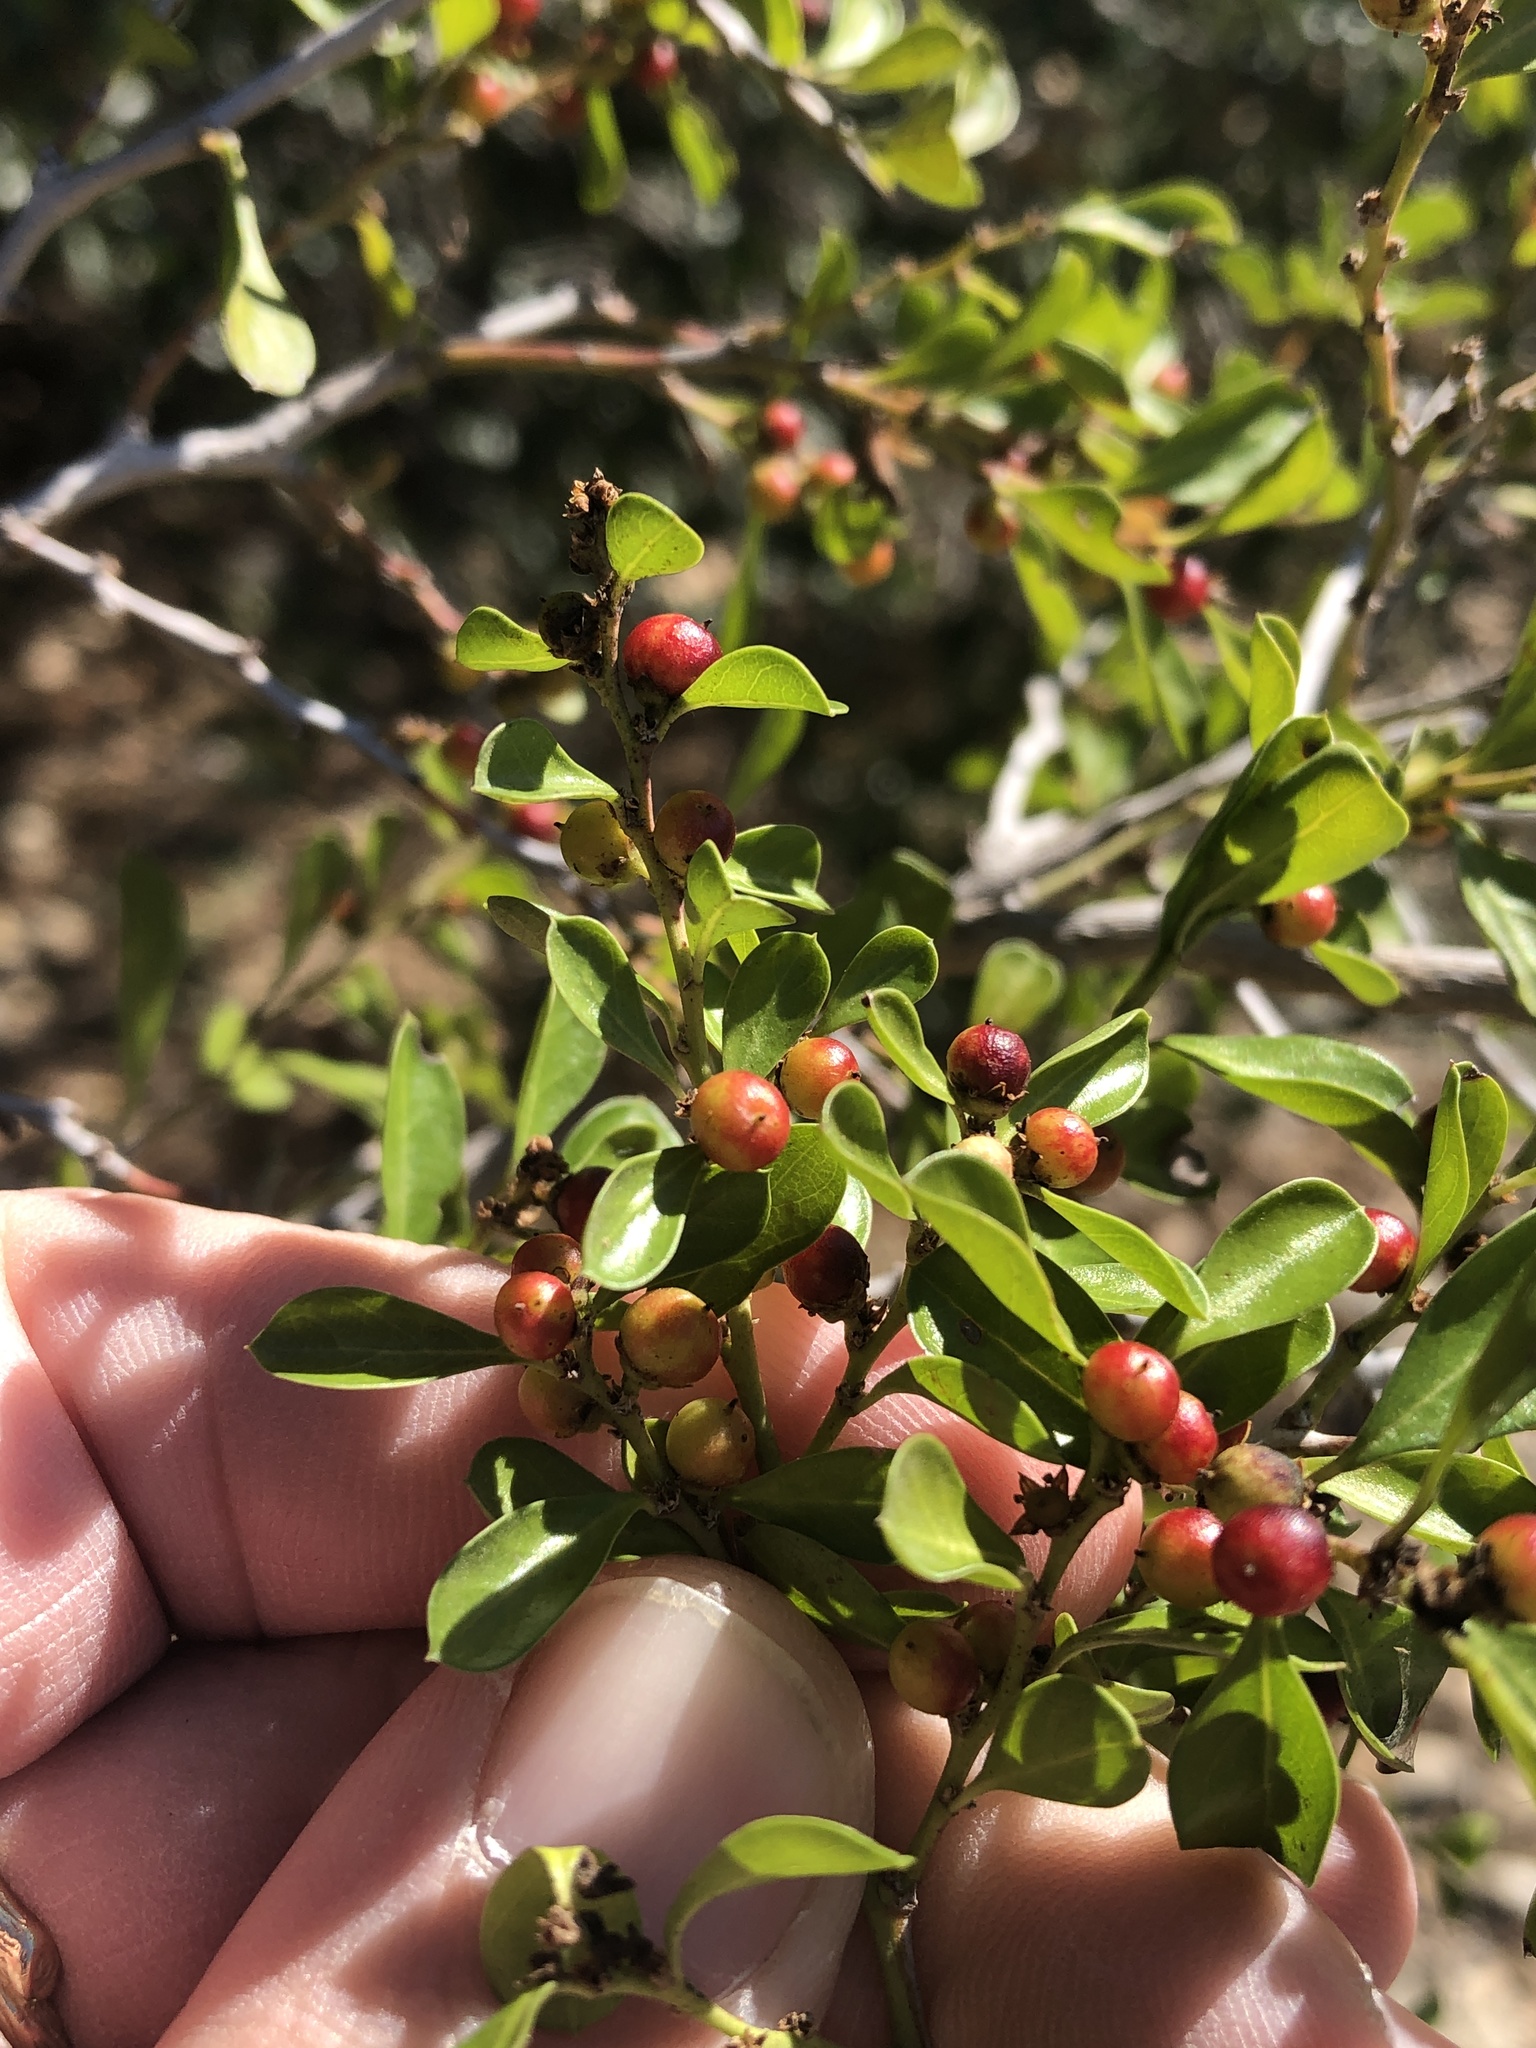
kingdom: Plantae
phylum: Tracheophyta
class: Magnoliopsida
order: Rosales
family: Rhamnaceae
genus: Condalia
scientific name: Condalia hookeri
